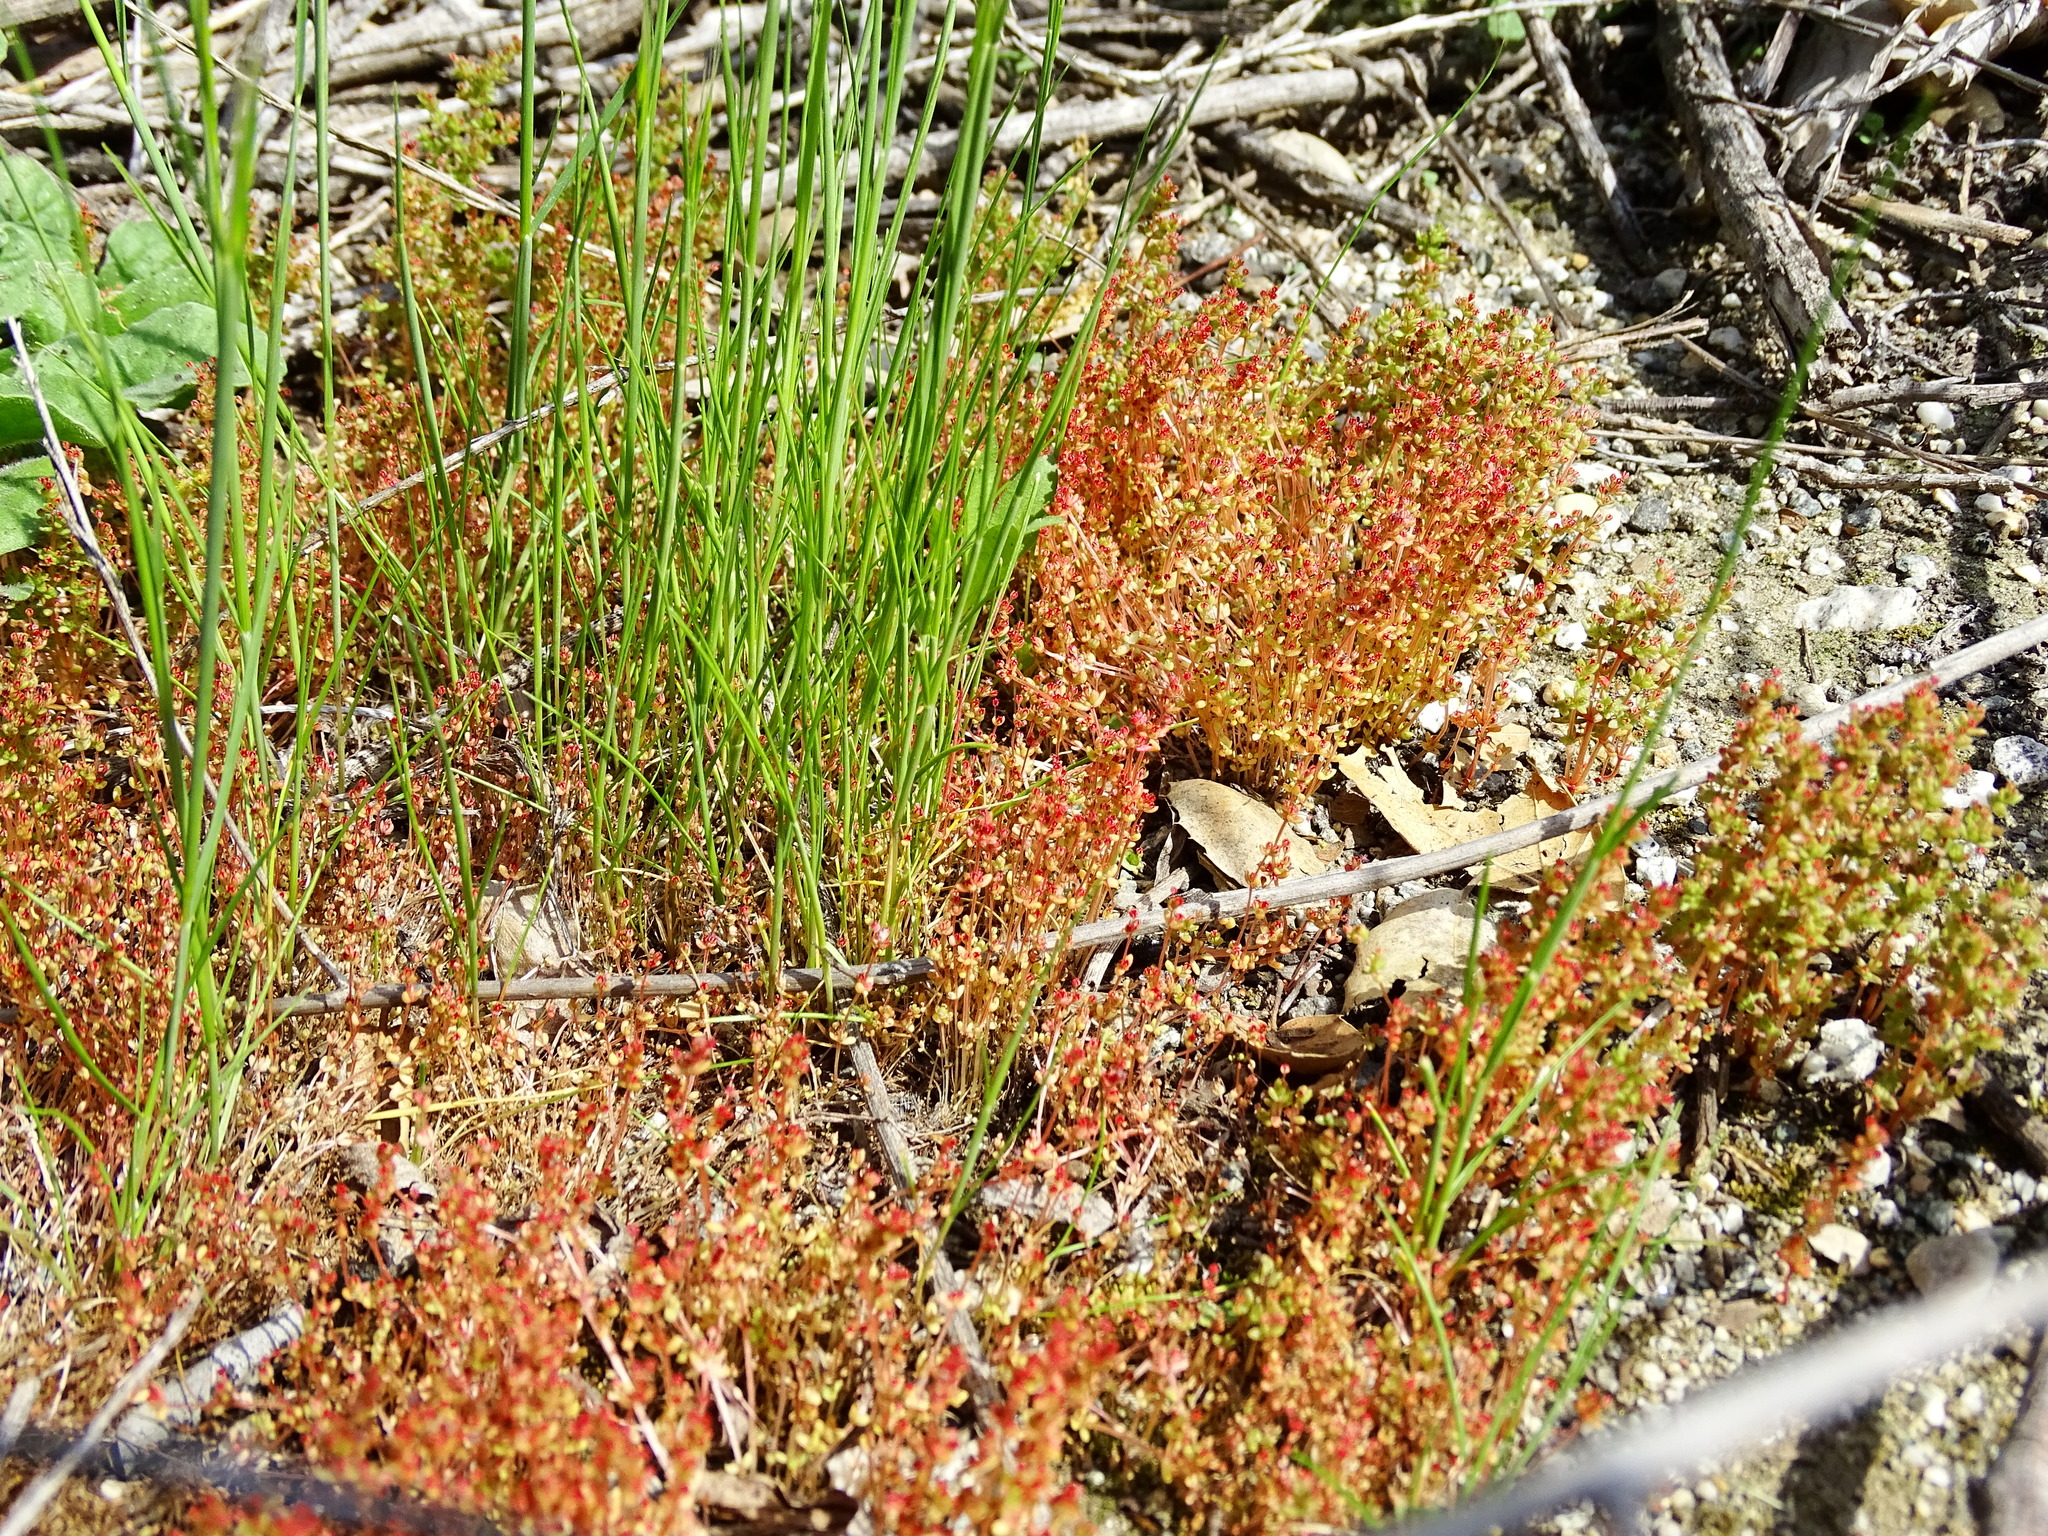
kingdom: Plantae
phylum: Tracheophyta
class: Magnoliopsida
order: Saxifragales
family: Crassulaceae
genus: Crassula
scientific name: Crassula connata
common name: Erect pygmyweed
